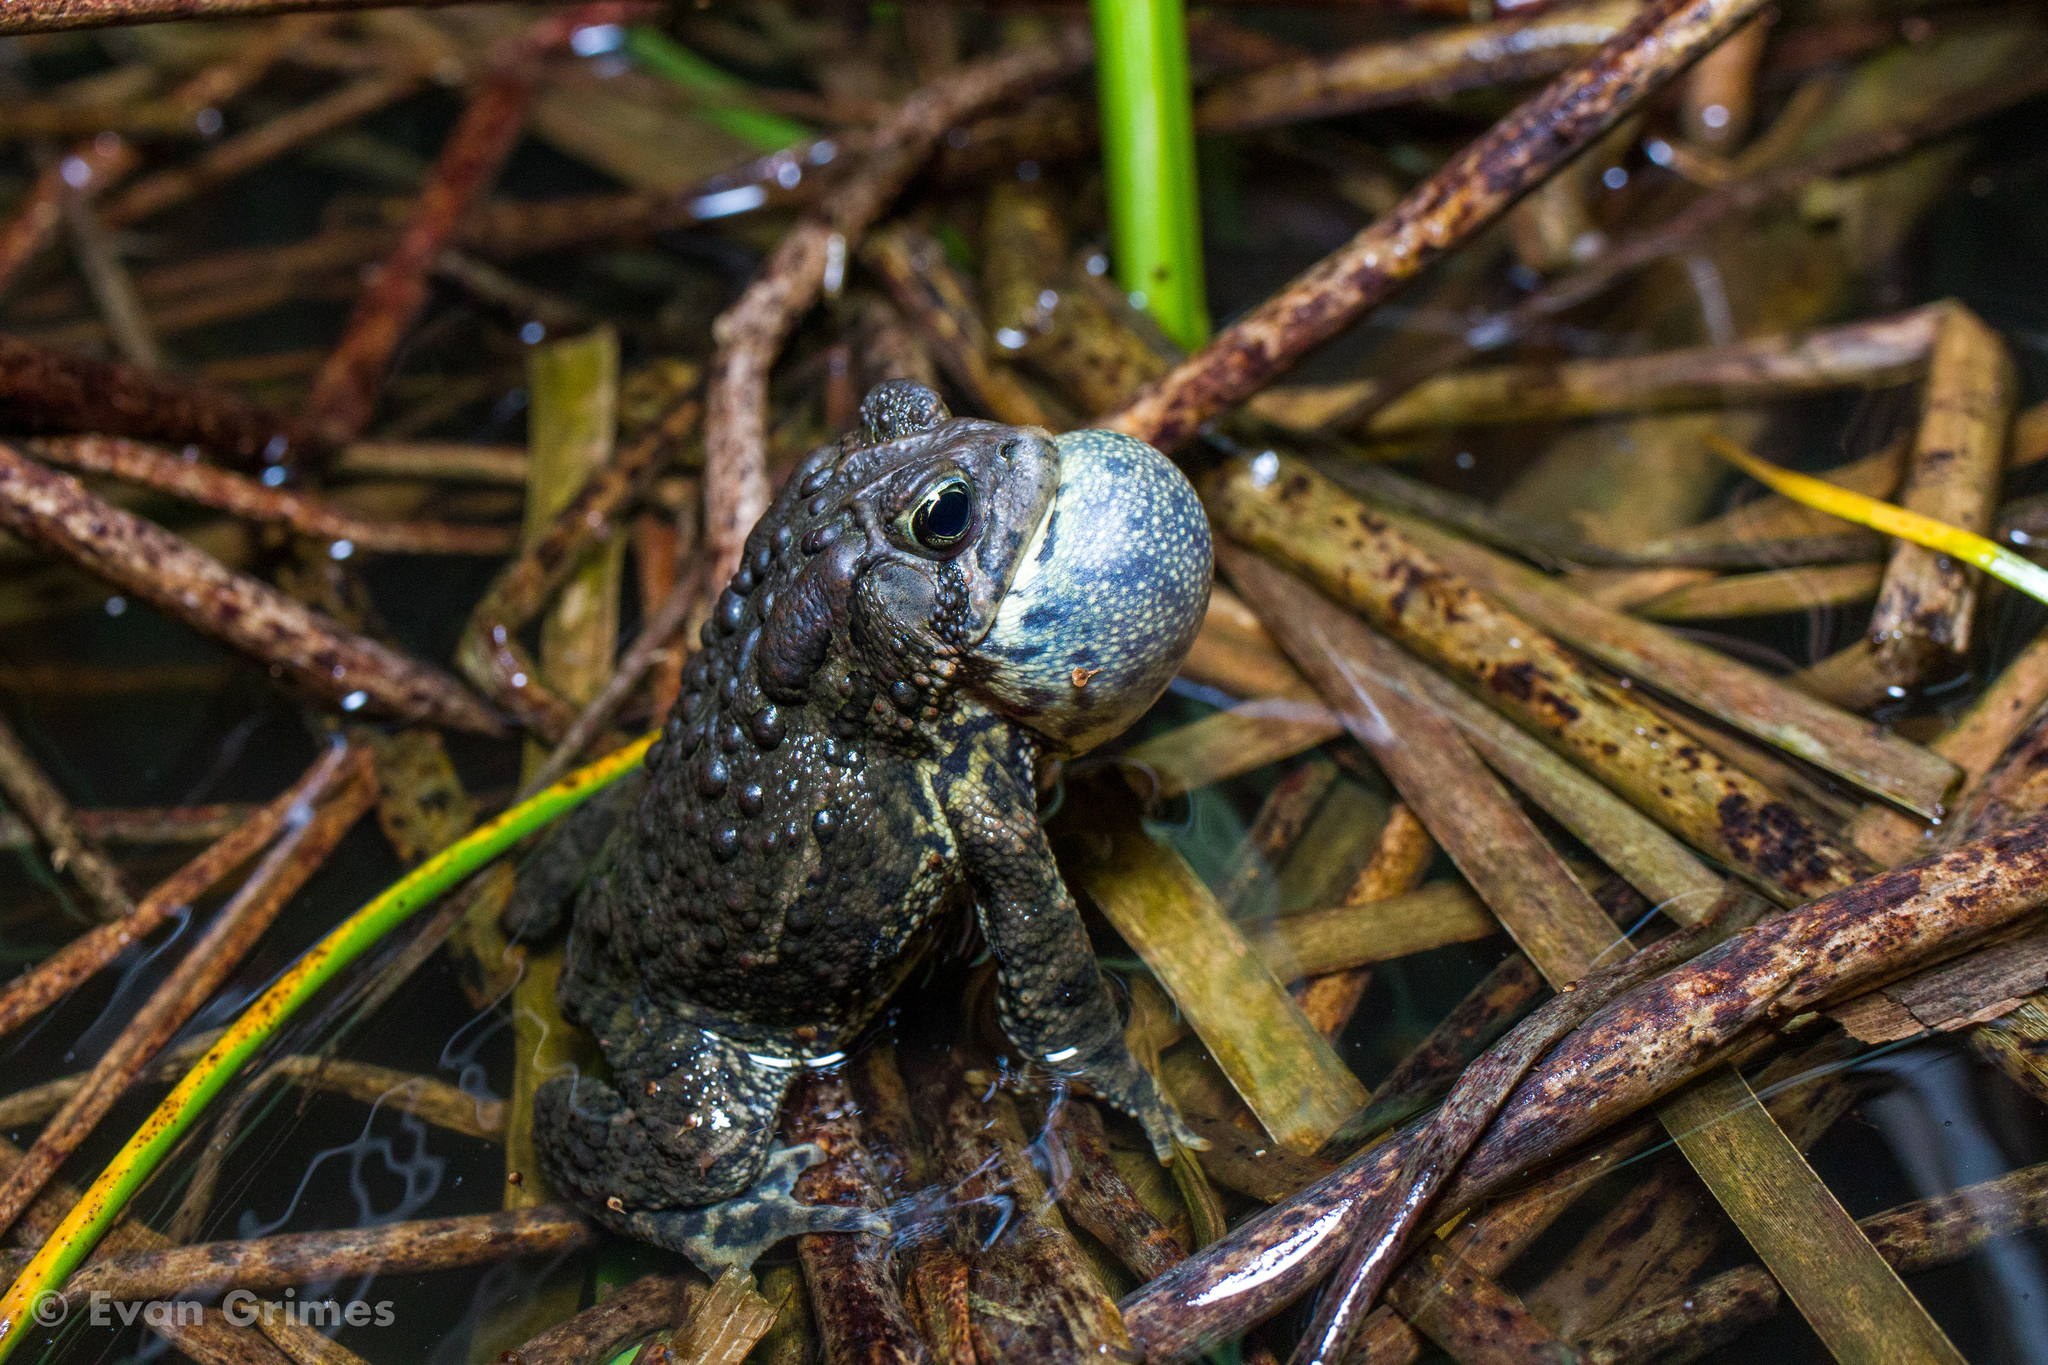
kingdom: Animalia
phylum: Chordata
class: Amphibia
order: Anura
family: Bufonidae
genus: Anaxyrus
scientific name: Anaxyrus americanus
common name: American toad
